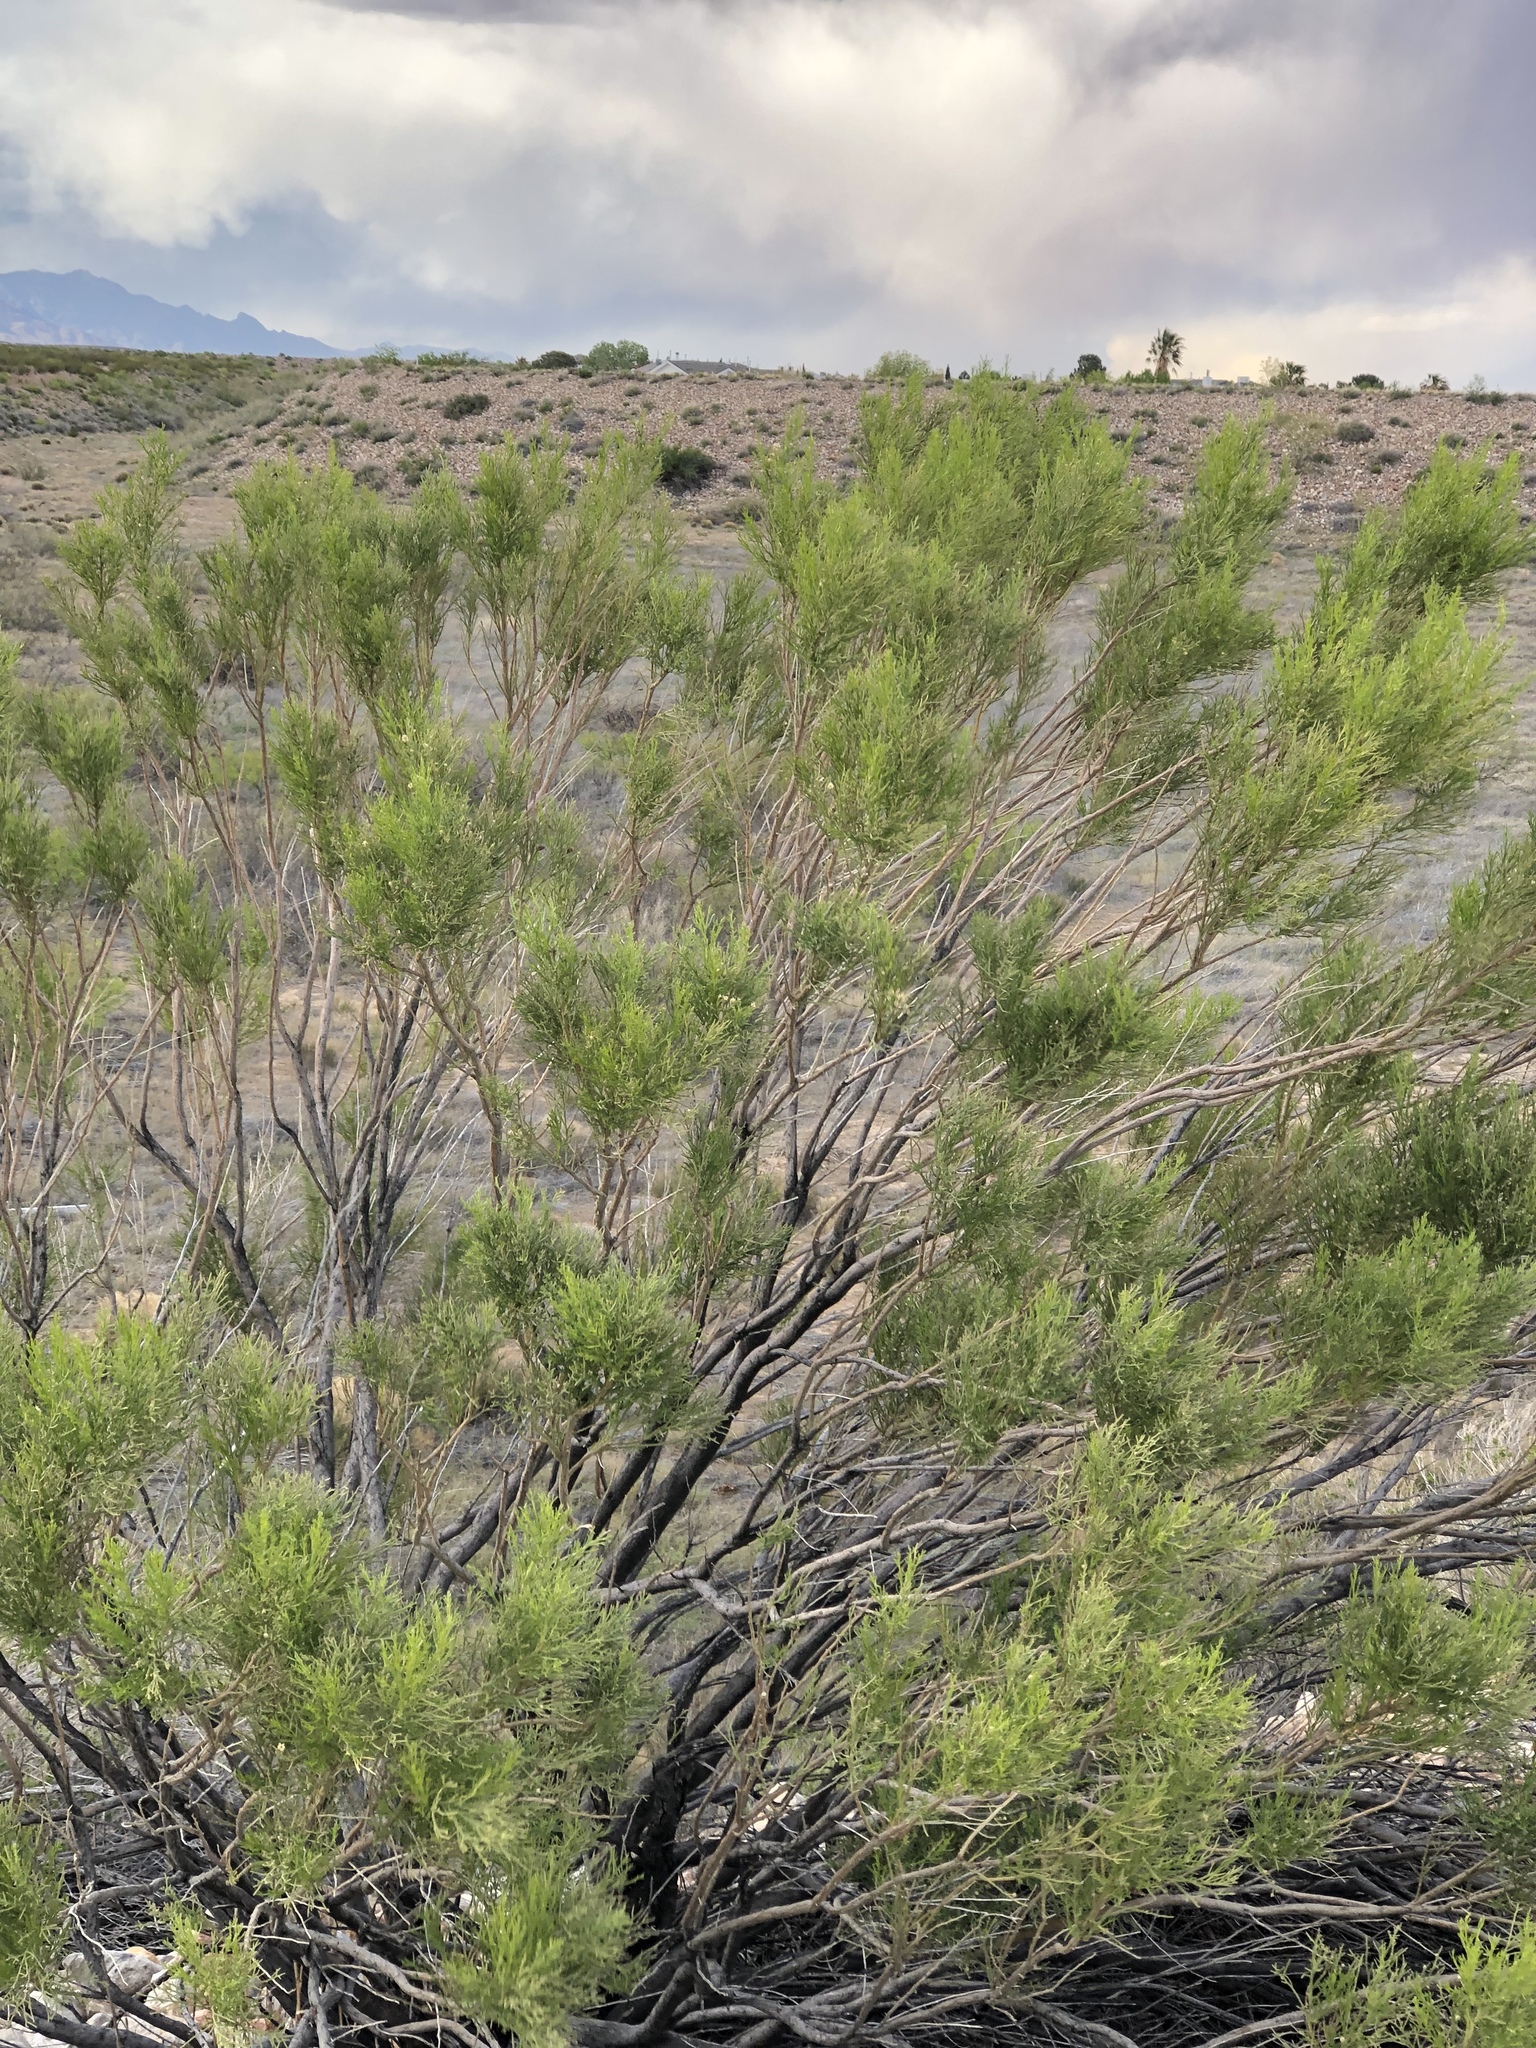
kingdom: Plantae
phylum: Tracheophyta
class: Magnoliopsida
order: Asterales
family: Asteraceae
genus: Baccharis
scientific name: Baccharis sarothroides
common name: Desert-broom
